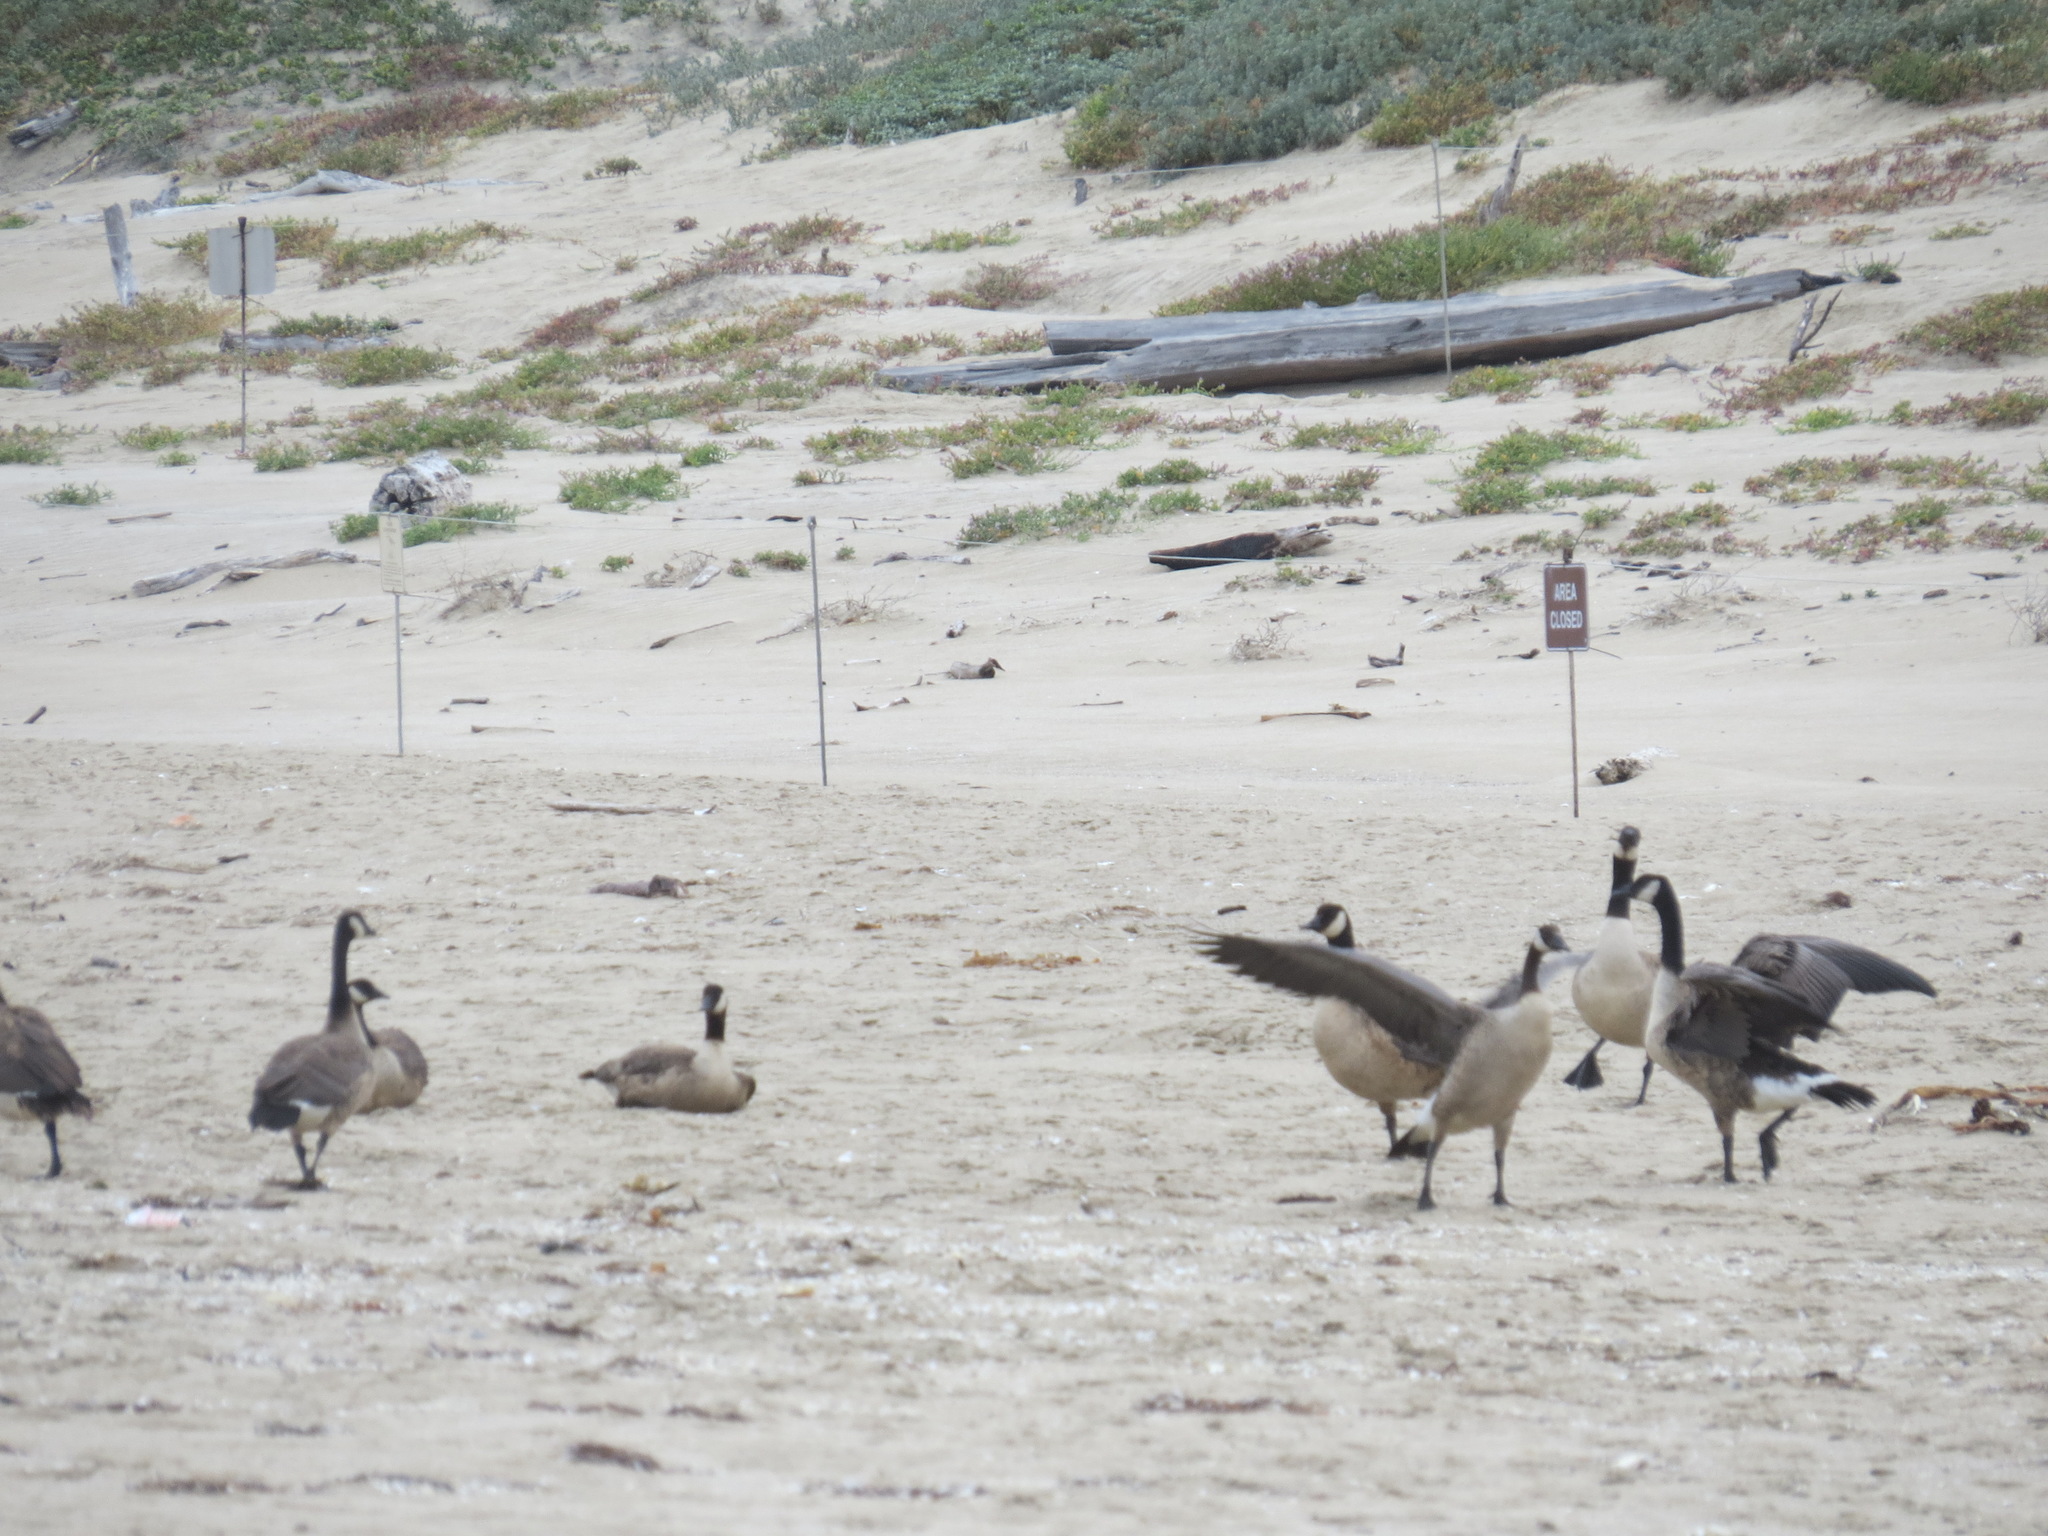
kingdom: Animalia
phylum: Chordata
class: Aves
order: Anseriformes
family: Anatidae
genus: Branta
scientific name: Branta canadensis
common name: Canada goose
